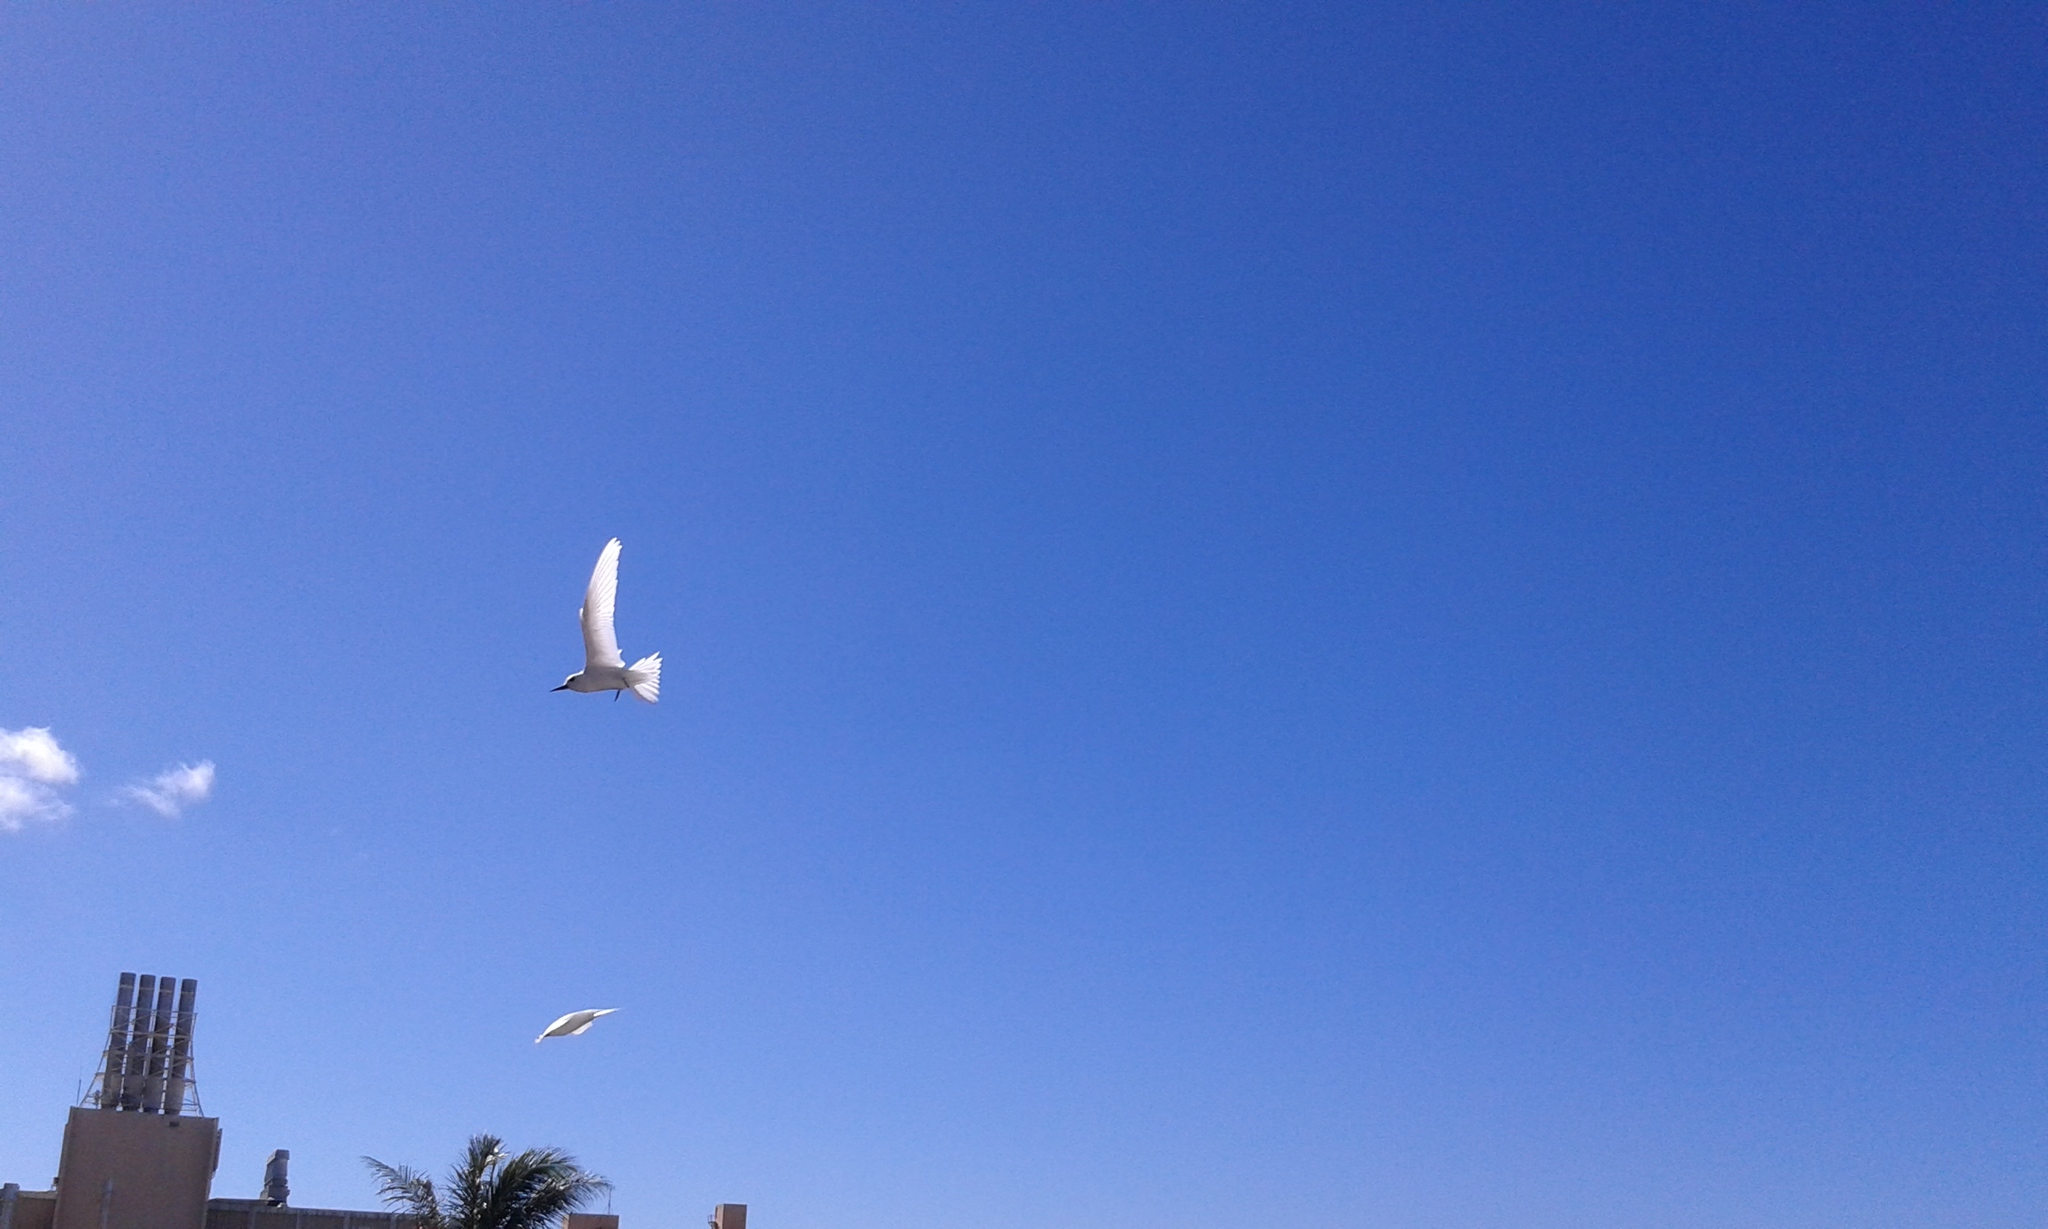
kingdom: Animalia
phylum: Chordata
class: Aves
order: Charadriiformes
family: Laridae
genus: Gygis
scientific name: Gygis alba
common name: White tern
